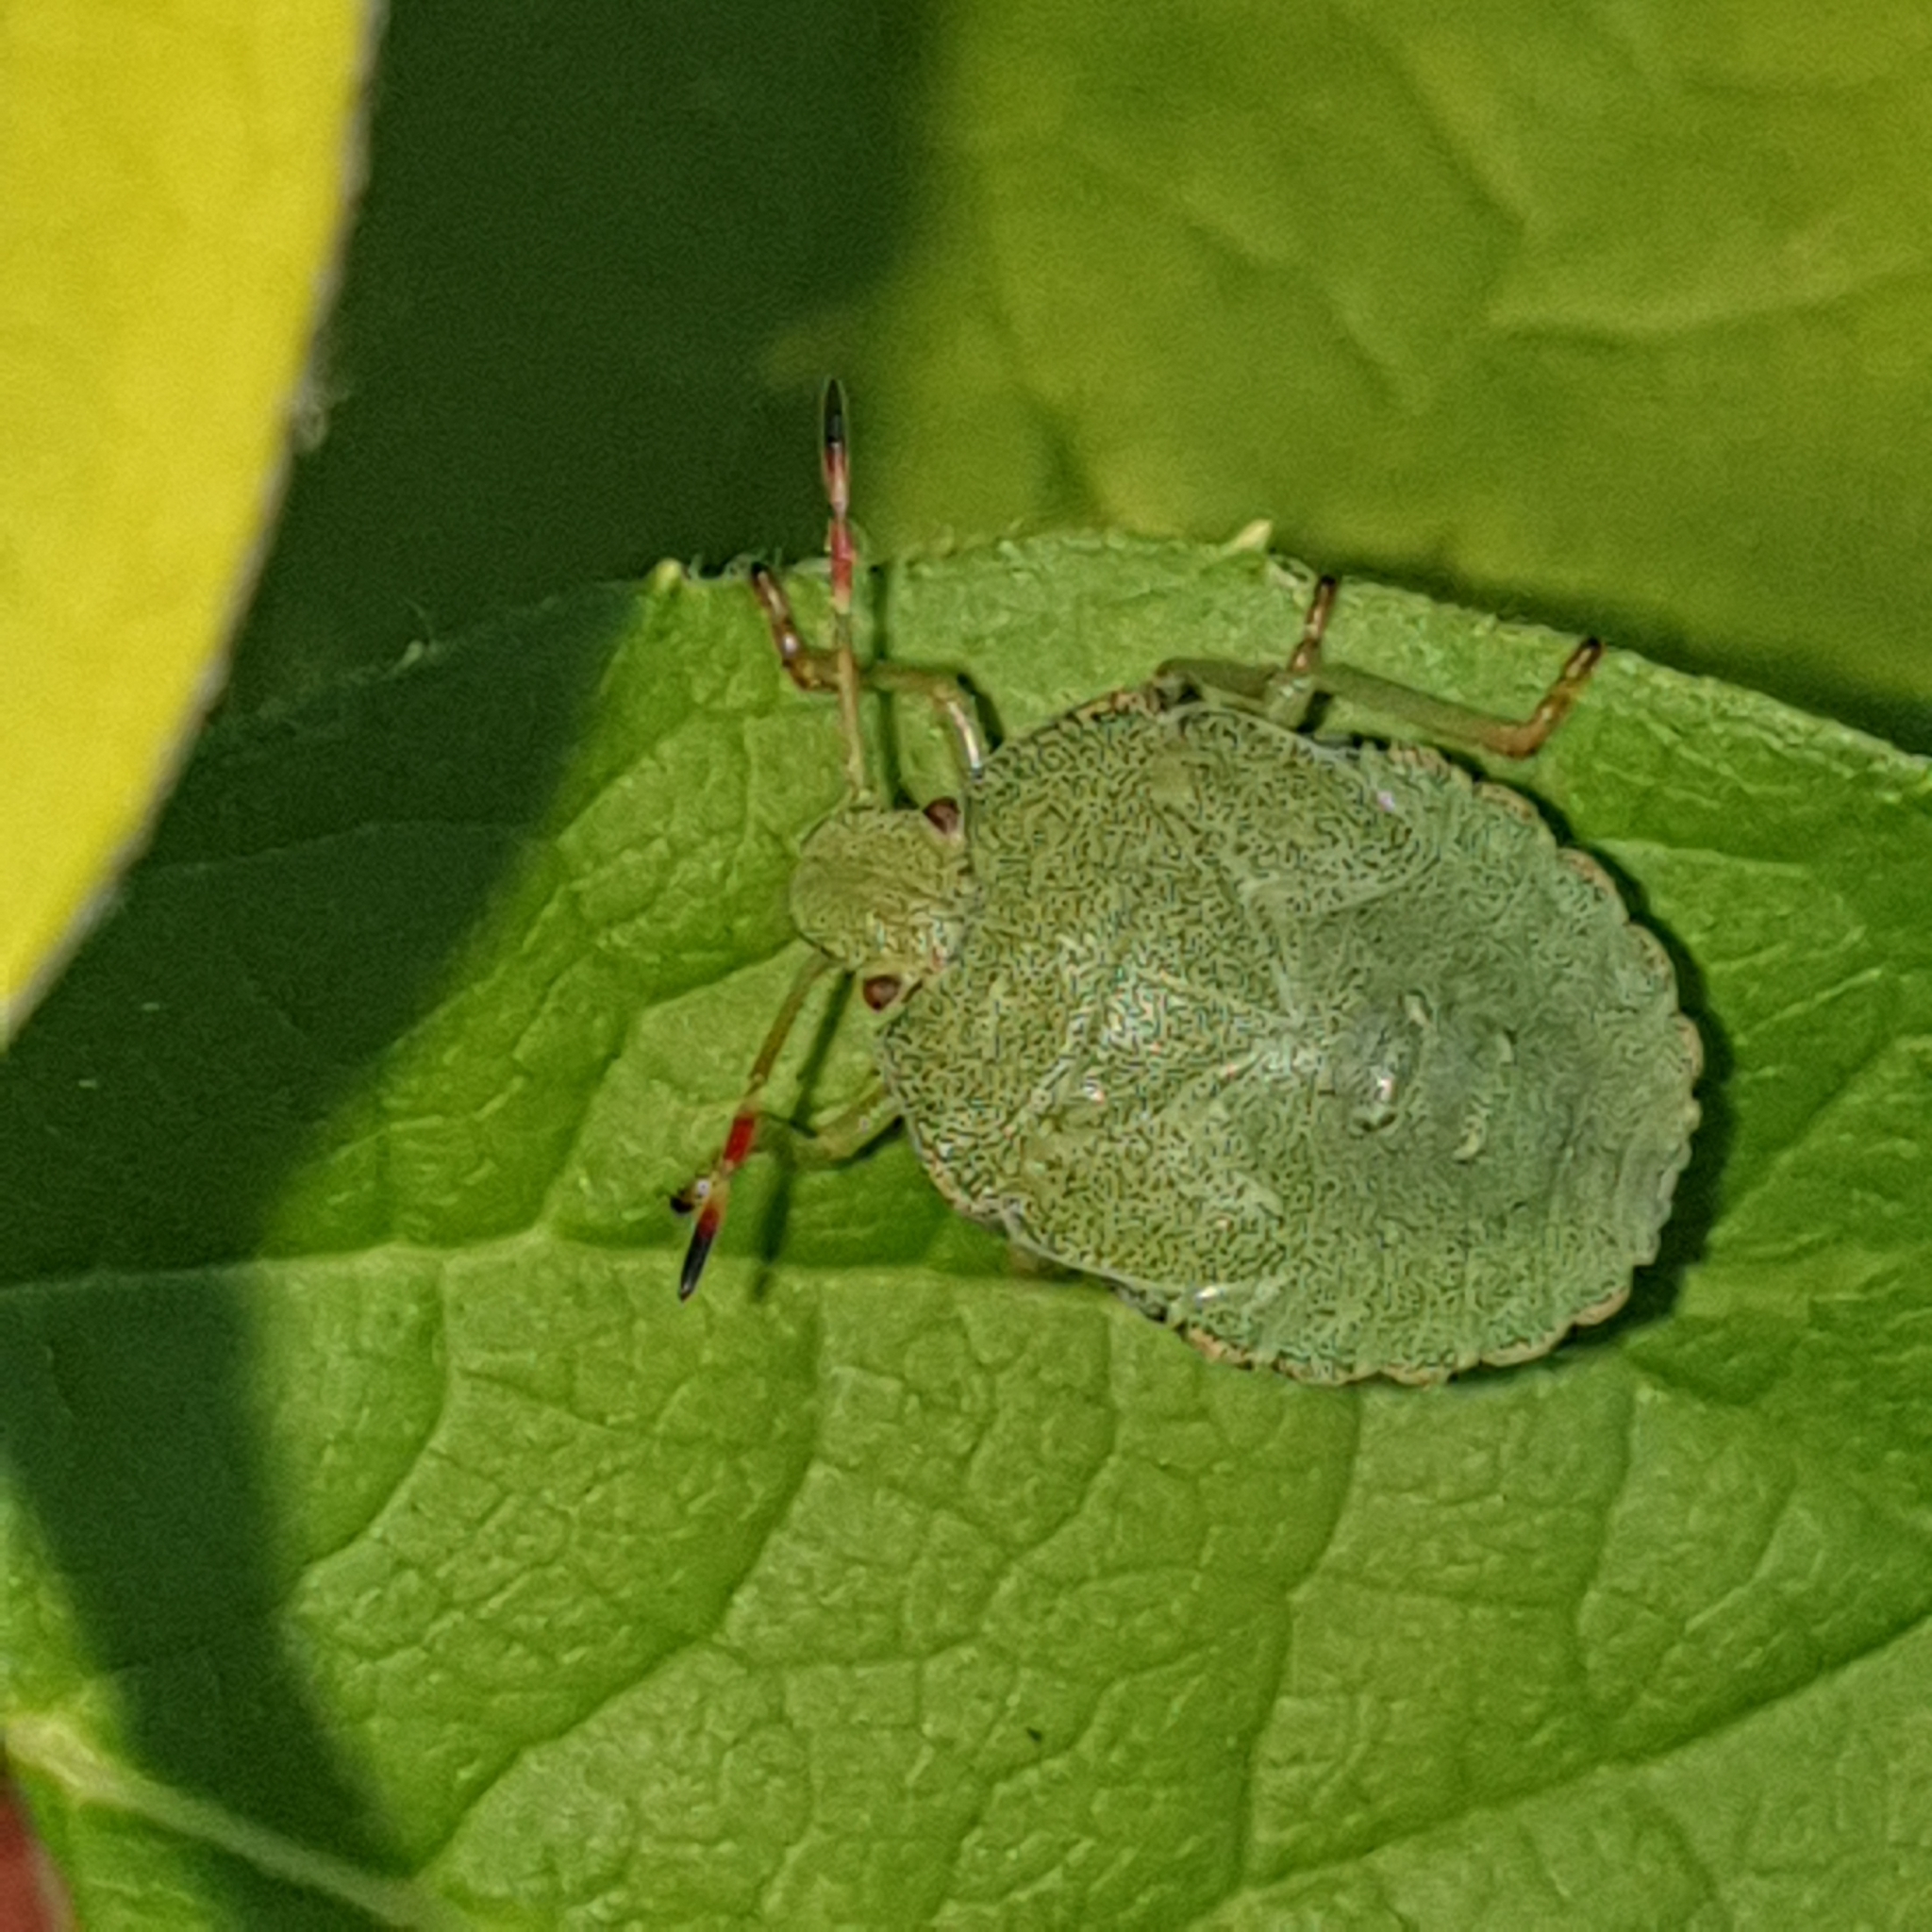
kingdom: Animalia
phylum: Arthropoda
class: Insecta
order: Hemiptera
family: Pentatomidae
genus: Palomena
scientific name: Palomena prasina
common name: Green shieldbug
